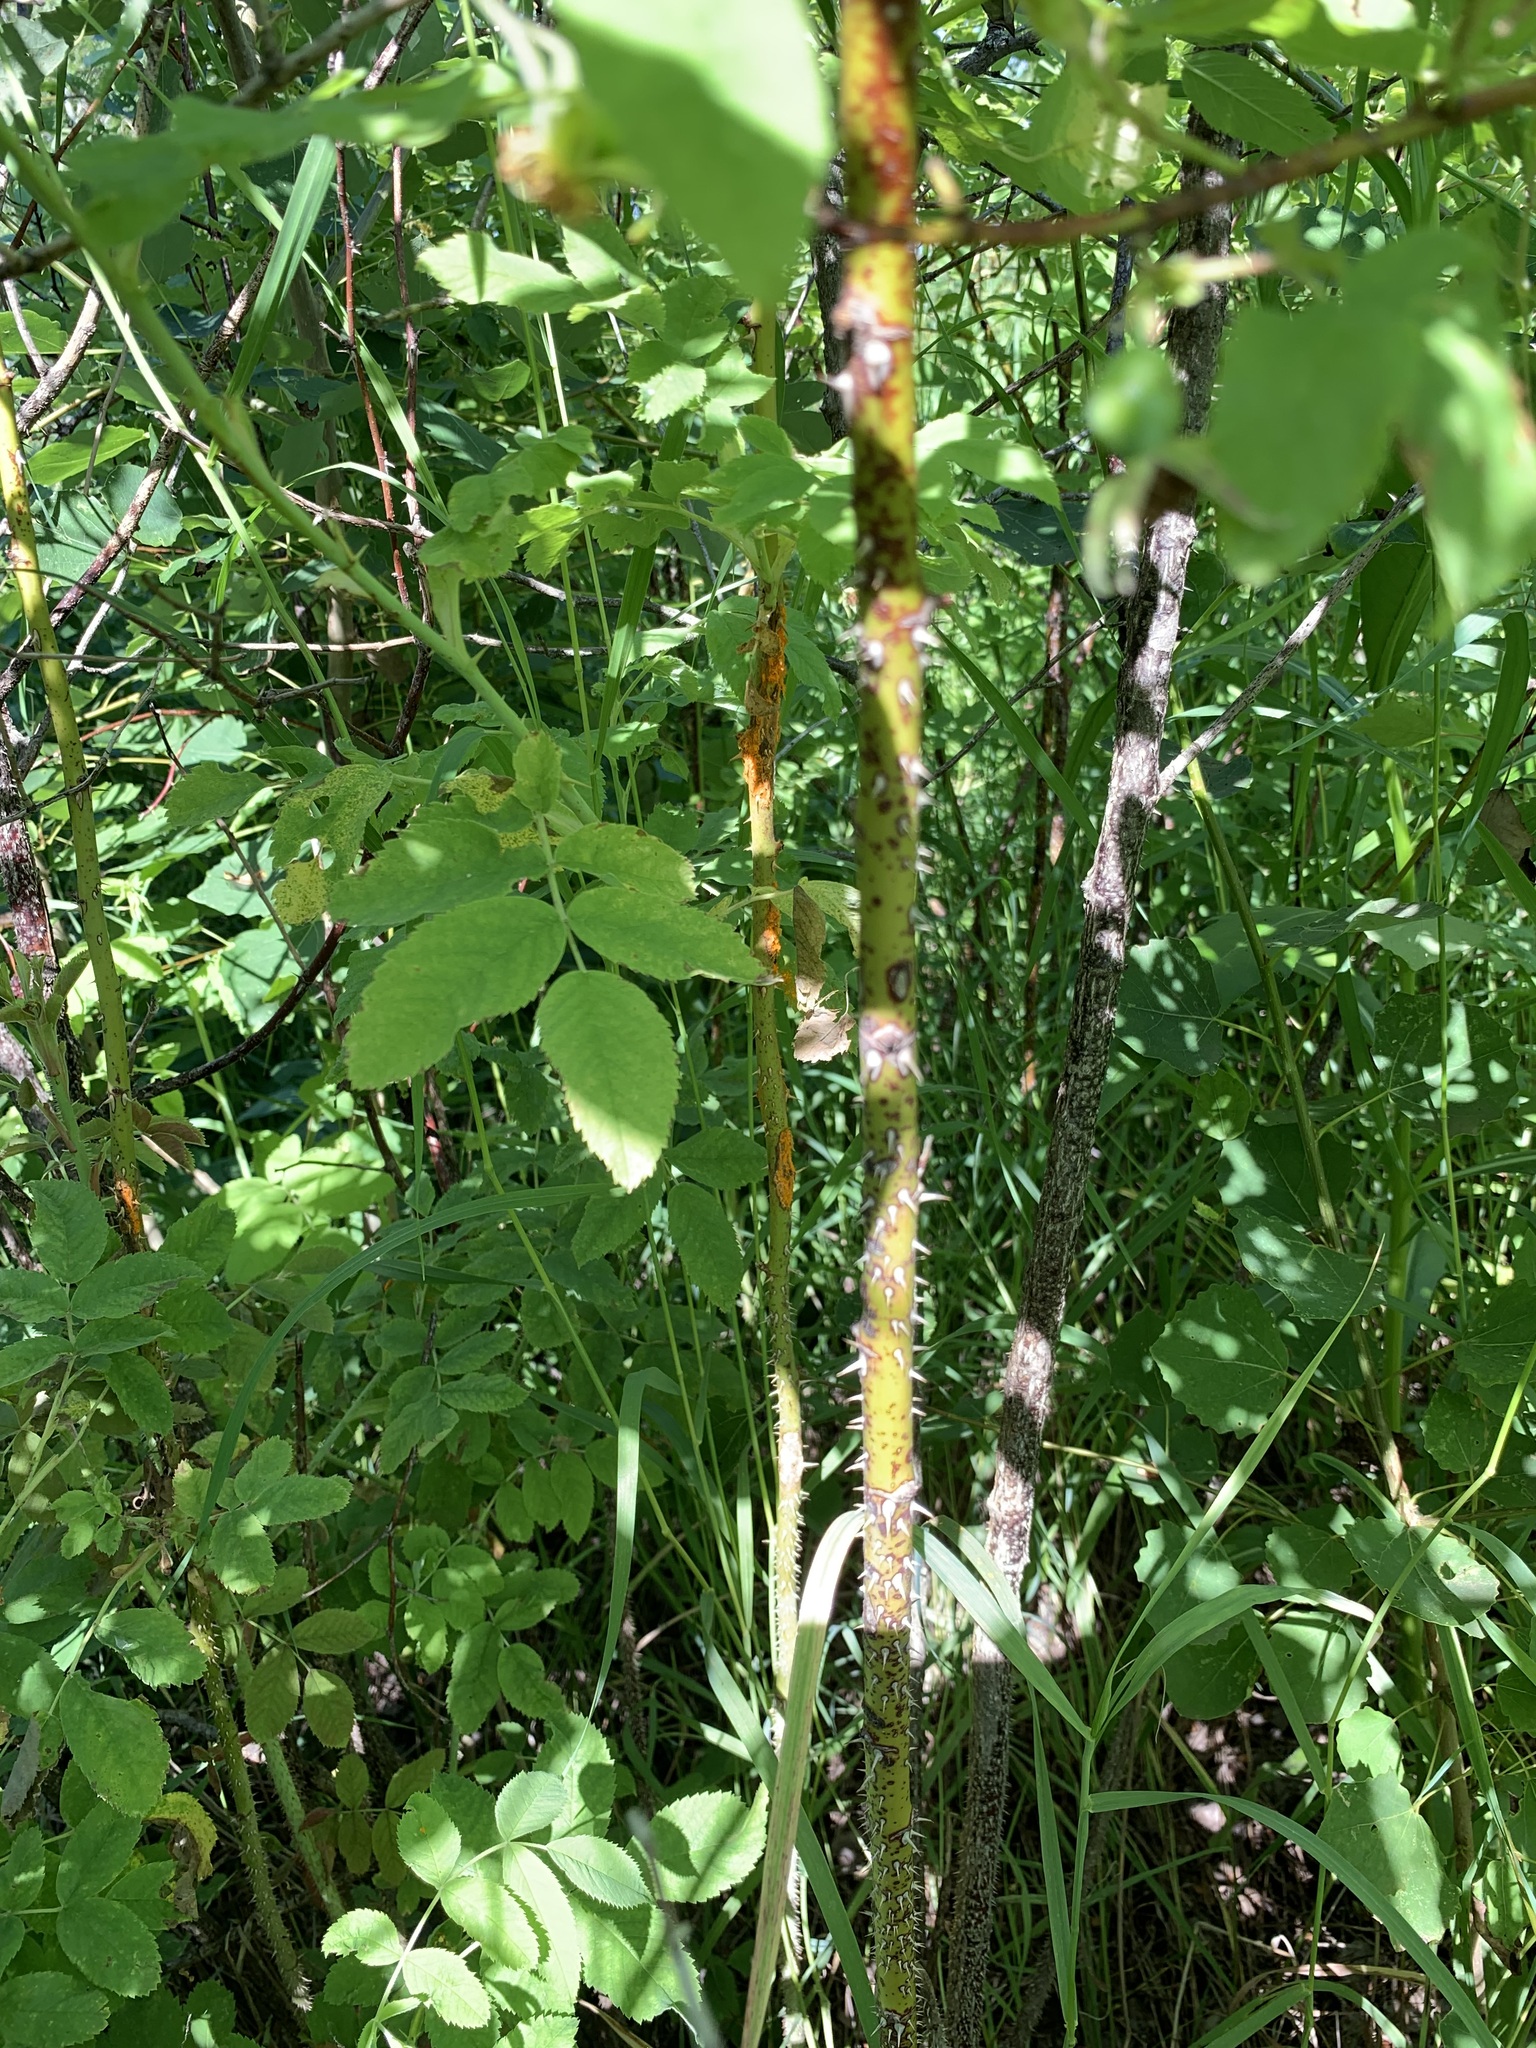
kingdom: Plantae
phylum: Tracheophyta
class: Magnoliopsida
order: Rosales
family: Rosaceae
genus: Rosa
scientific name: Rosa majalis
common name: Cinnamon rose
